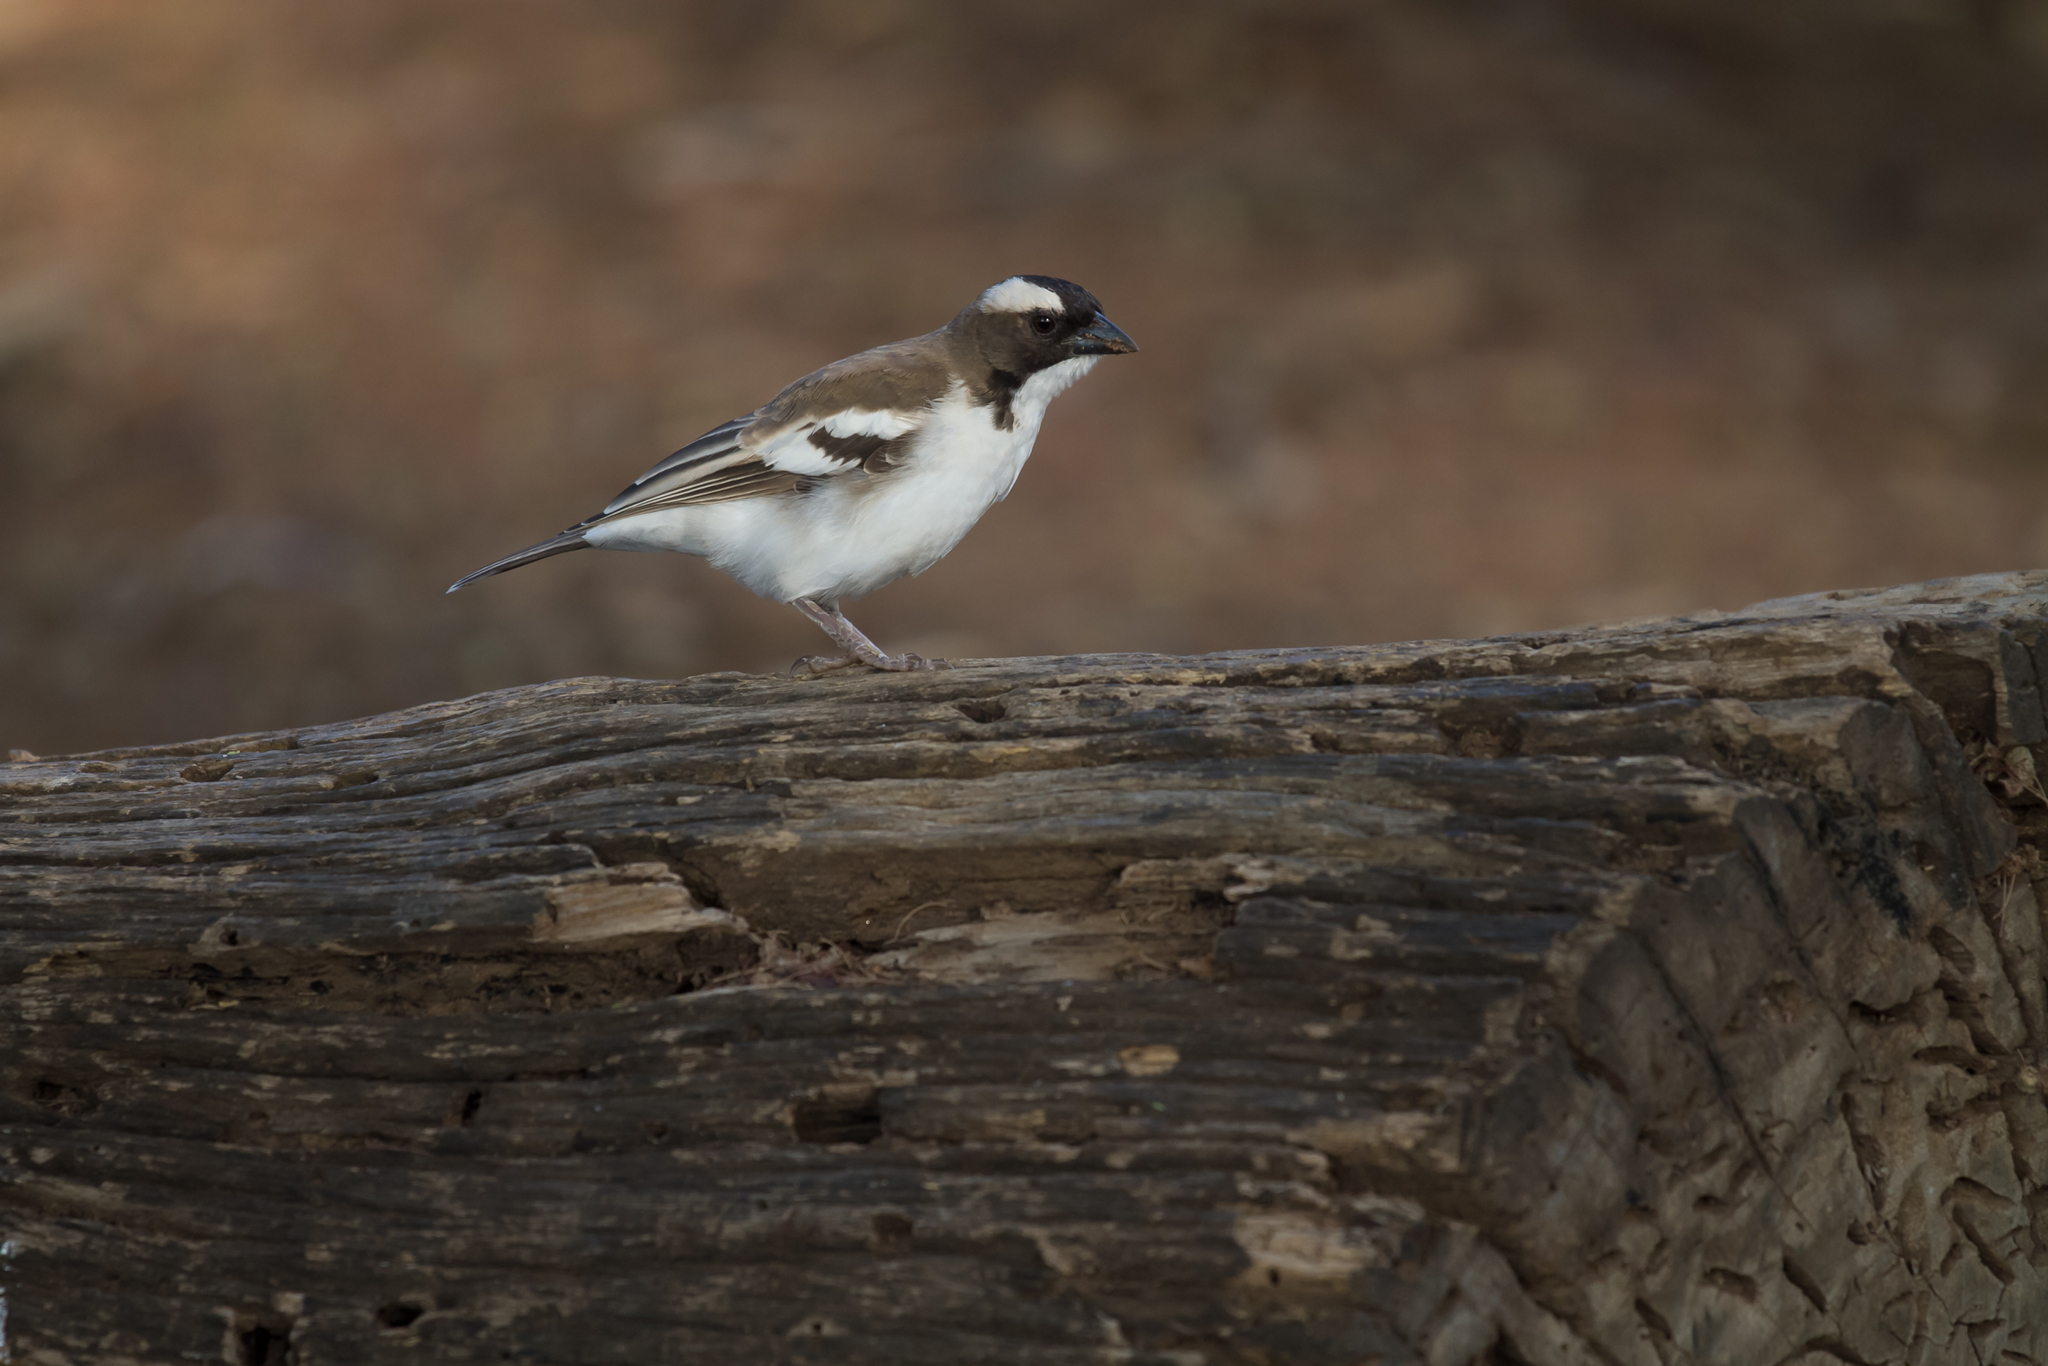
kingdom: Animalia
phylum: Chordata
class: Aves
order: Passeriformes
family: Passeridae
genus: Plocepasser
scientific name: Plocepasser mahali
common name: White-browed sparrow-weaver
